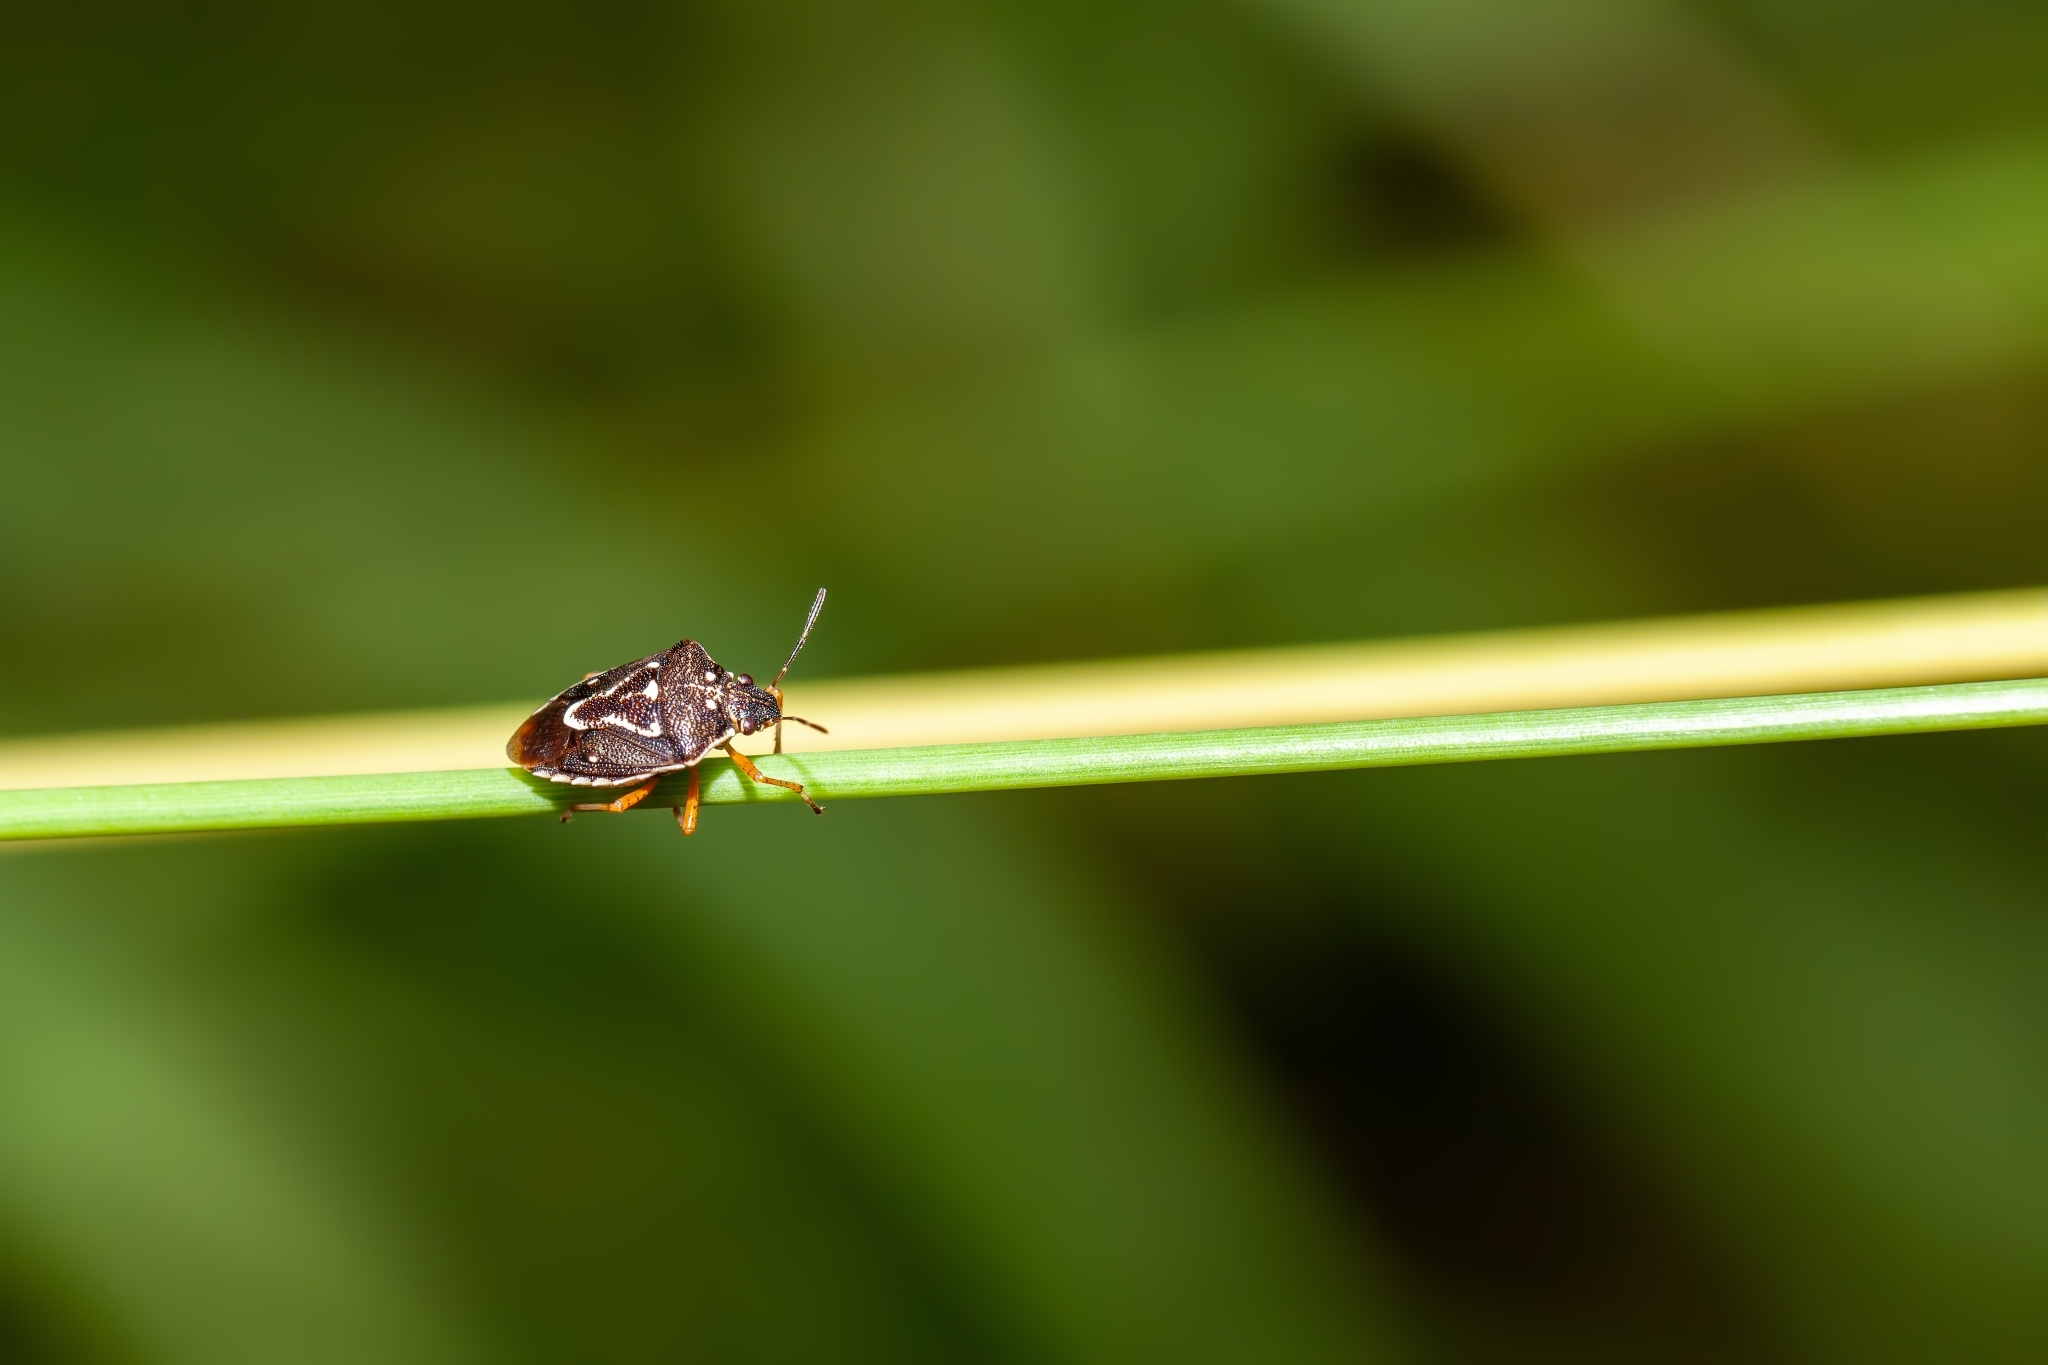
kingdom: Animalia
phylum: Arthropoda
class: Insecta
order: Hemiptera
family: Pentatomidae
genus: Mormidea
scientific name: Mormidea pama
